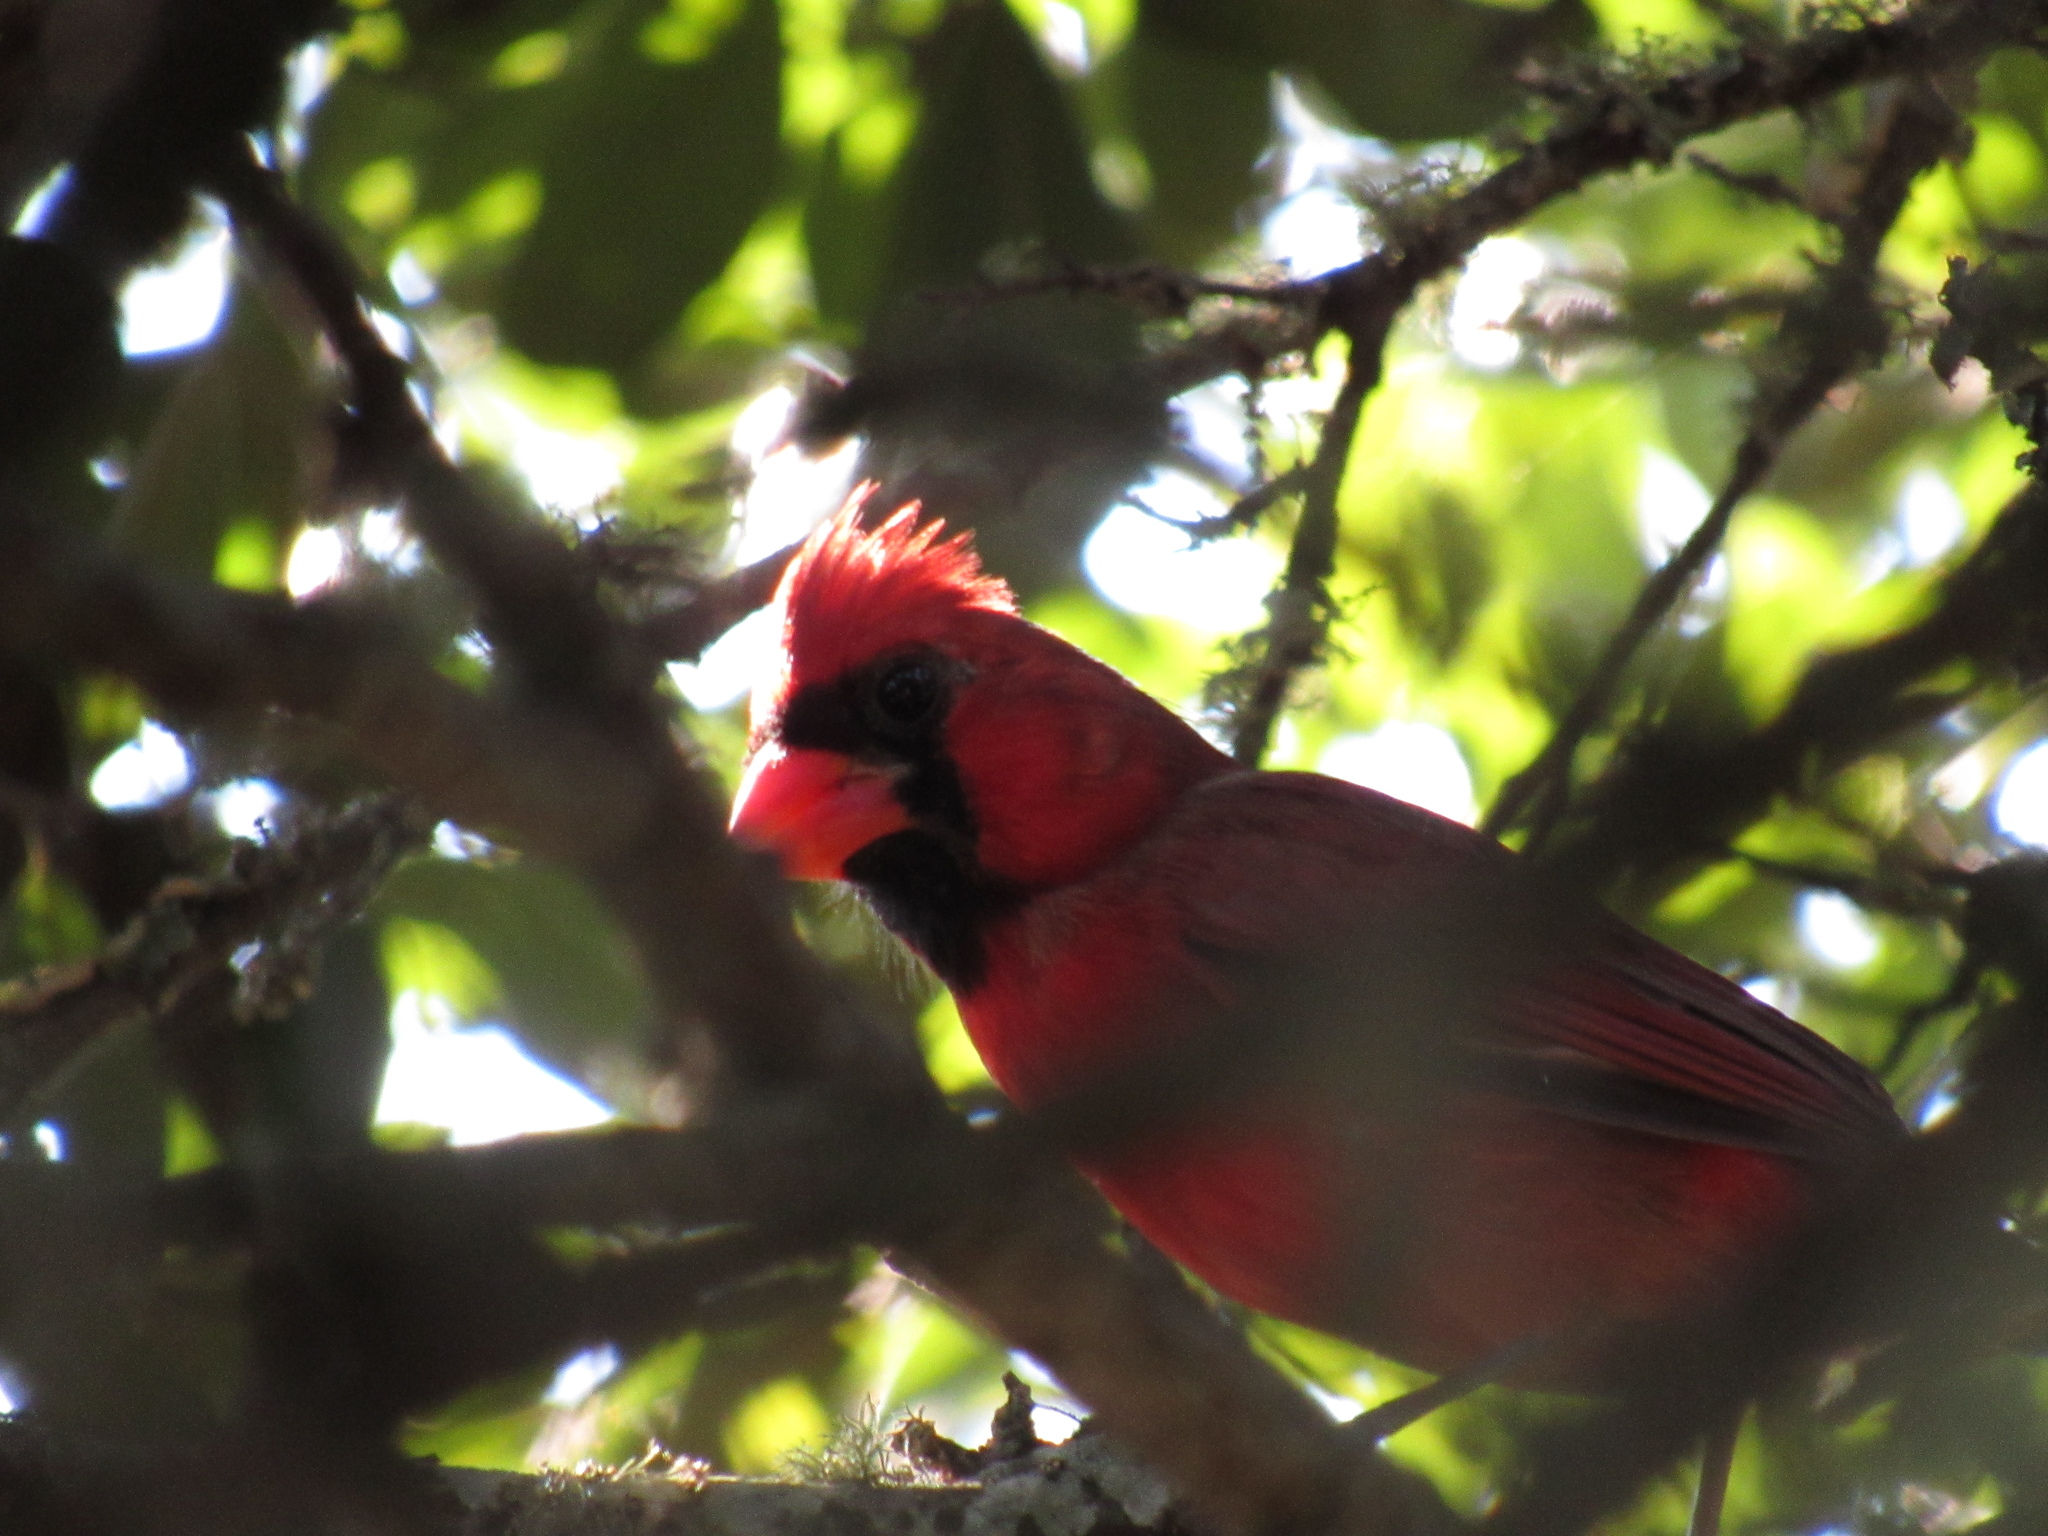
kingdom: Animalia
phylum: Chordata
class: Aves
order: Passeriformes
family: Cardinalidae
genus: Cardinalis
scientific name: Cardinalis cardinalis
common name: Northern cardinal
